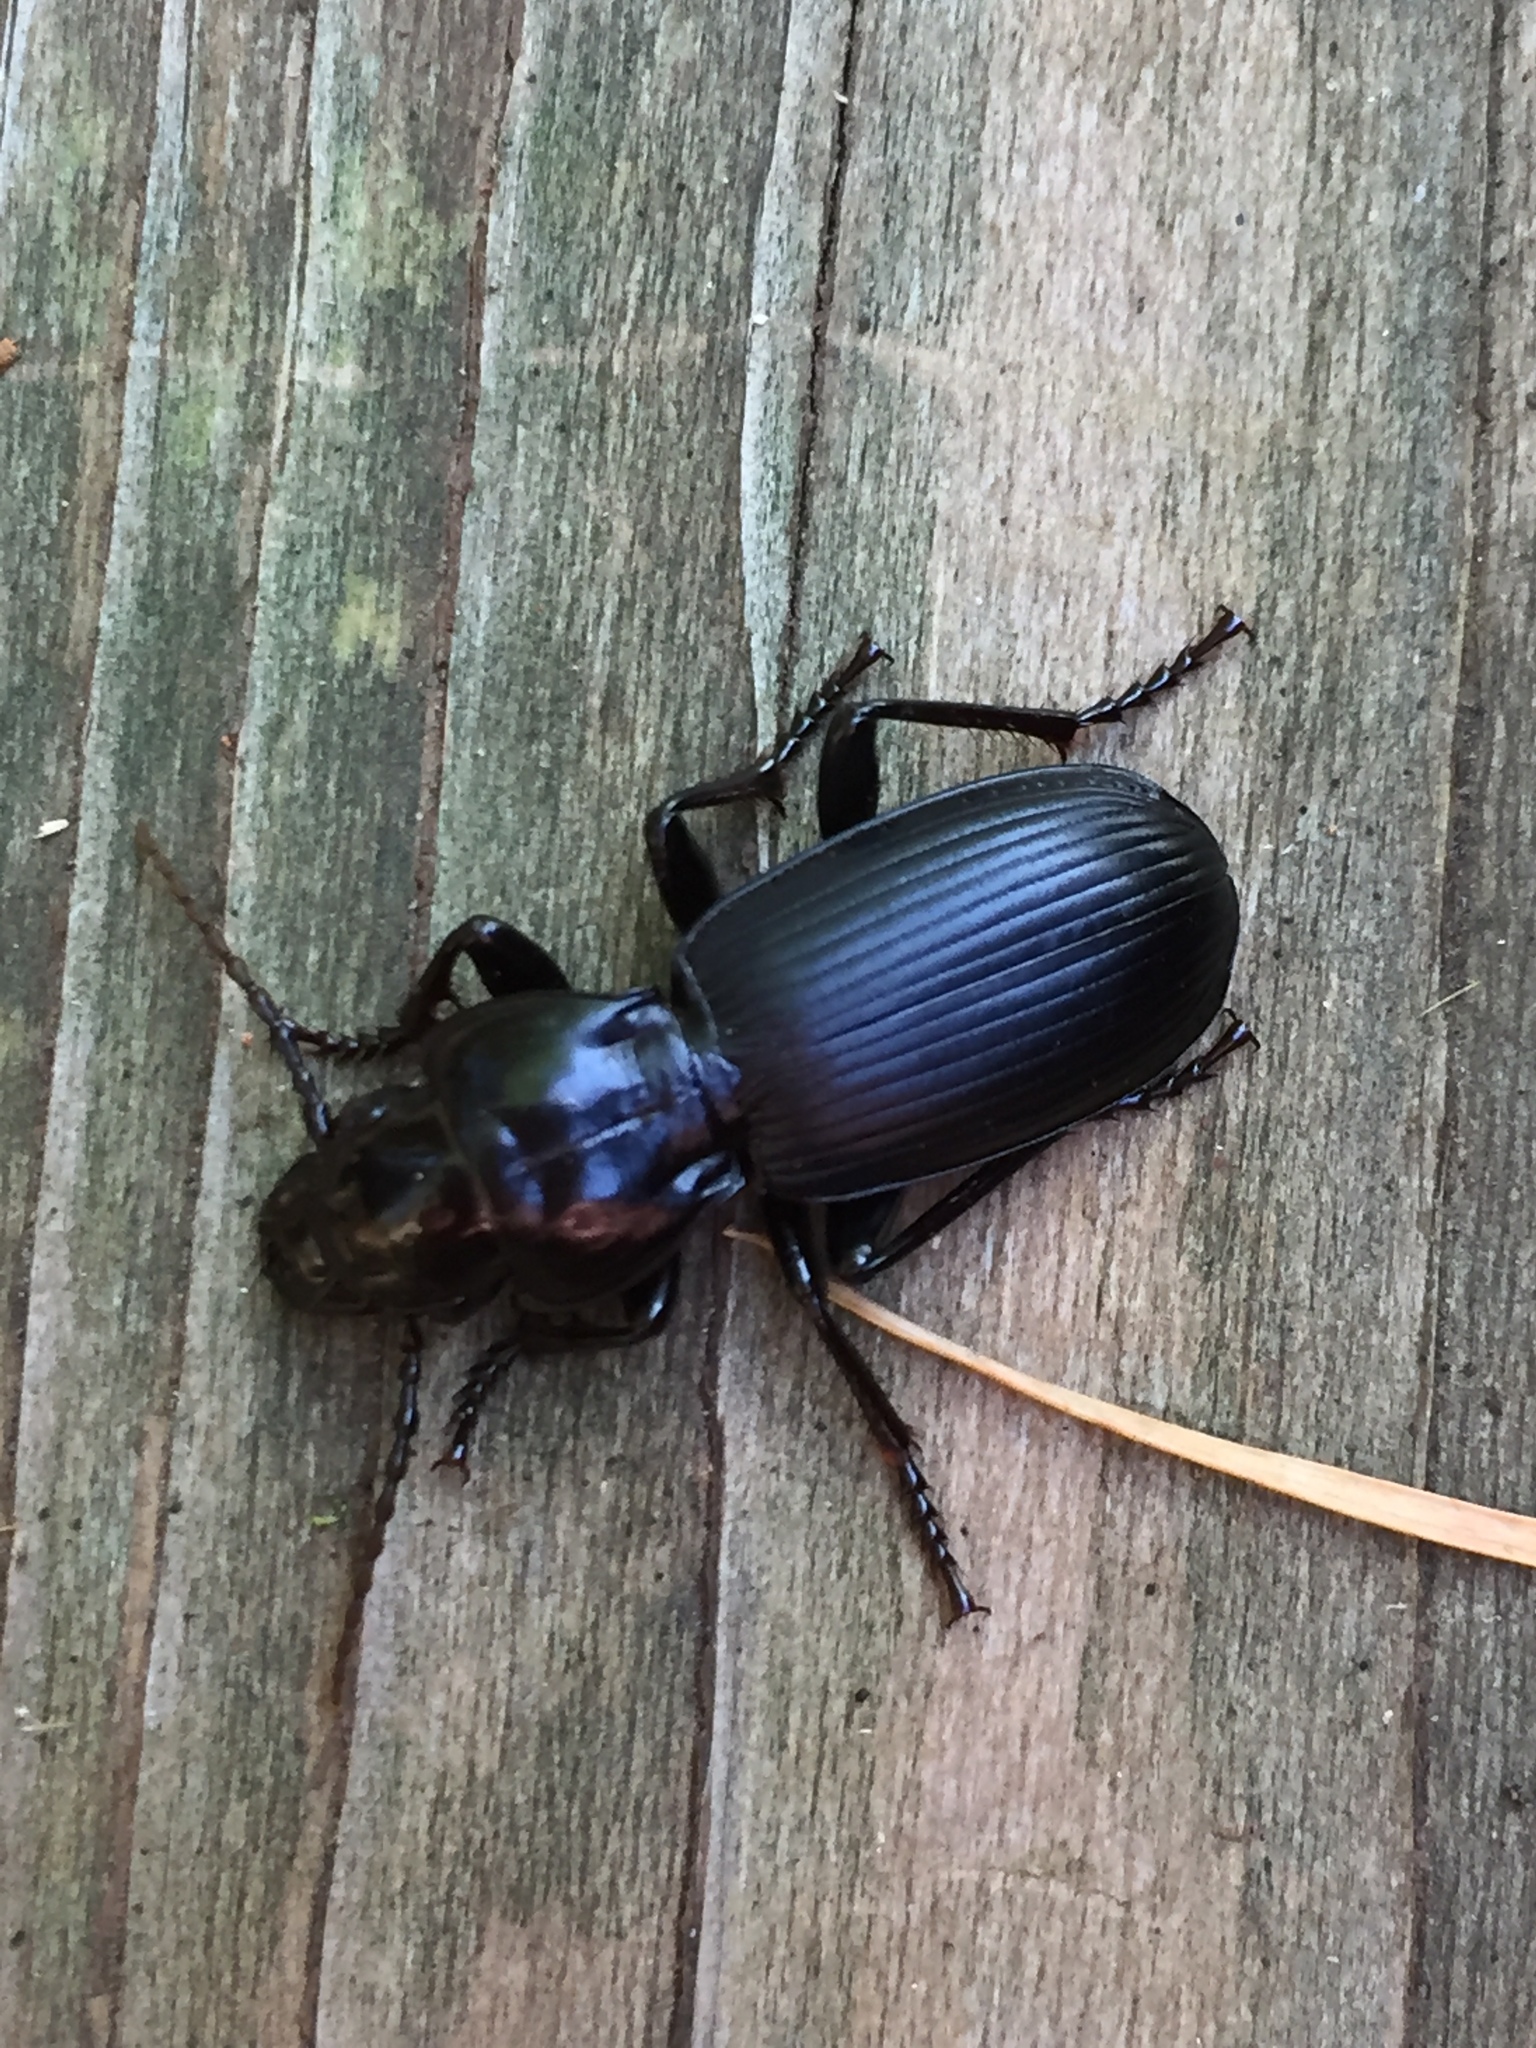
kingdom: Animalia
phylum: Arthropoda
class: Insecta
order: Coleoptera
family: Carabidae
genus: Pterostichus
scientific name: Pterostichus lama
